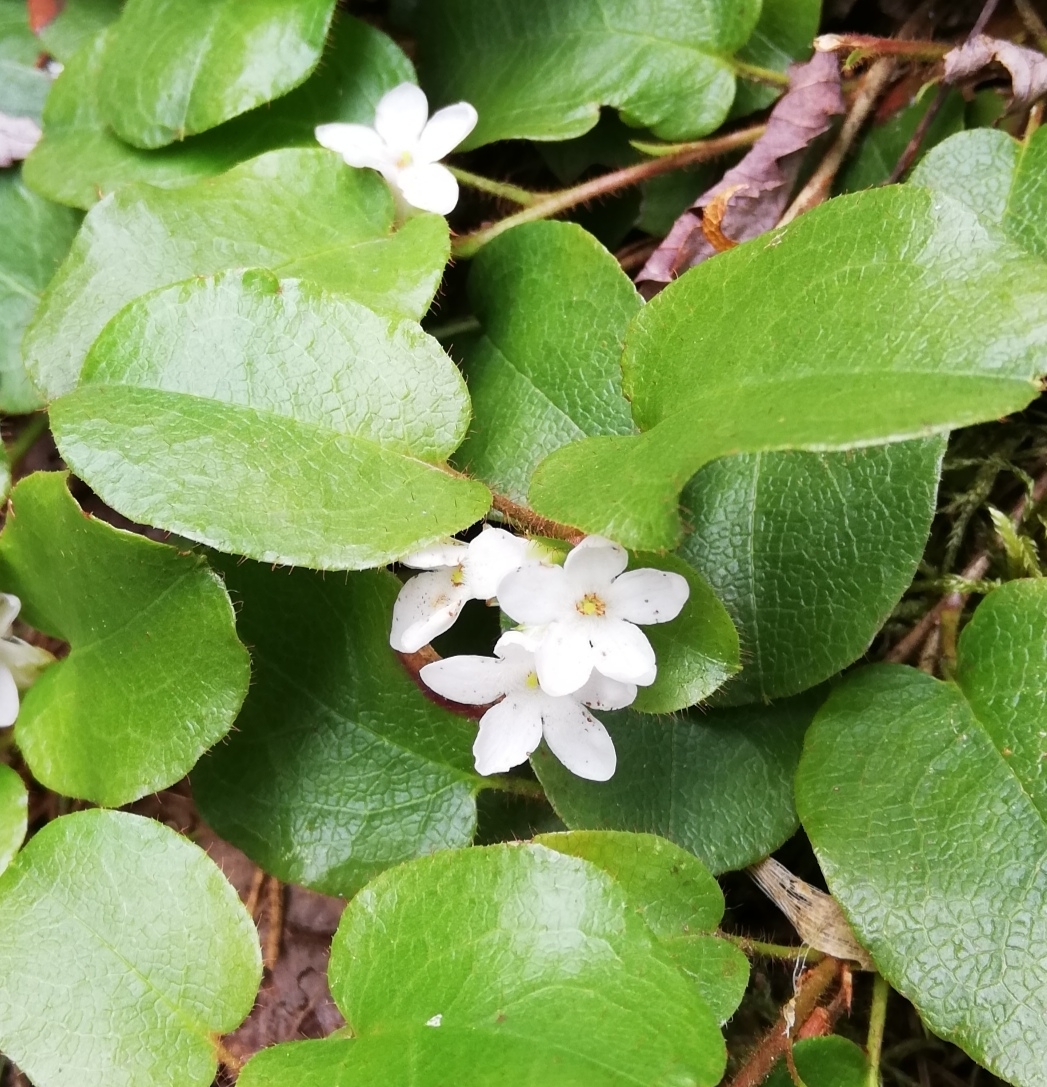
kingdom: Plantae
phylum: Tracheophyta
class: Magnoliopsida
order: Ericales
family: Ericaceae
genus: Epigaea
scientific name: Epigaea repens
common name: Gravelroot
